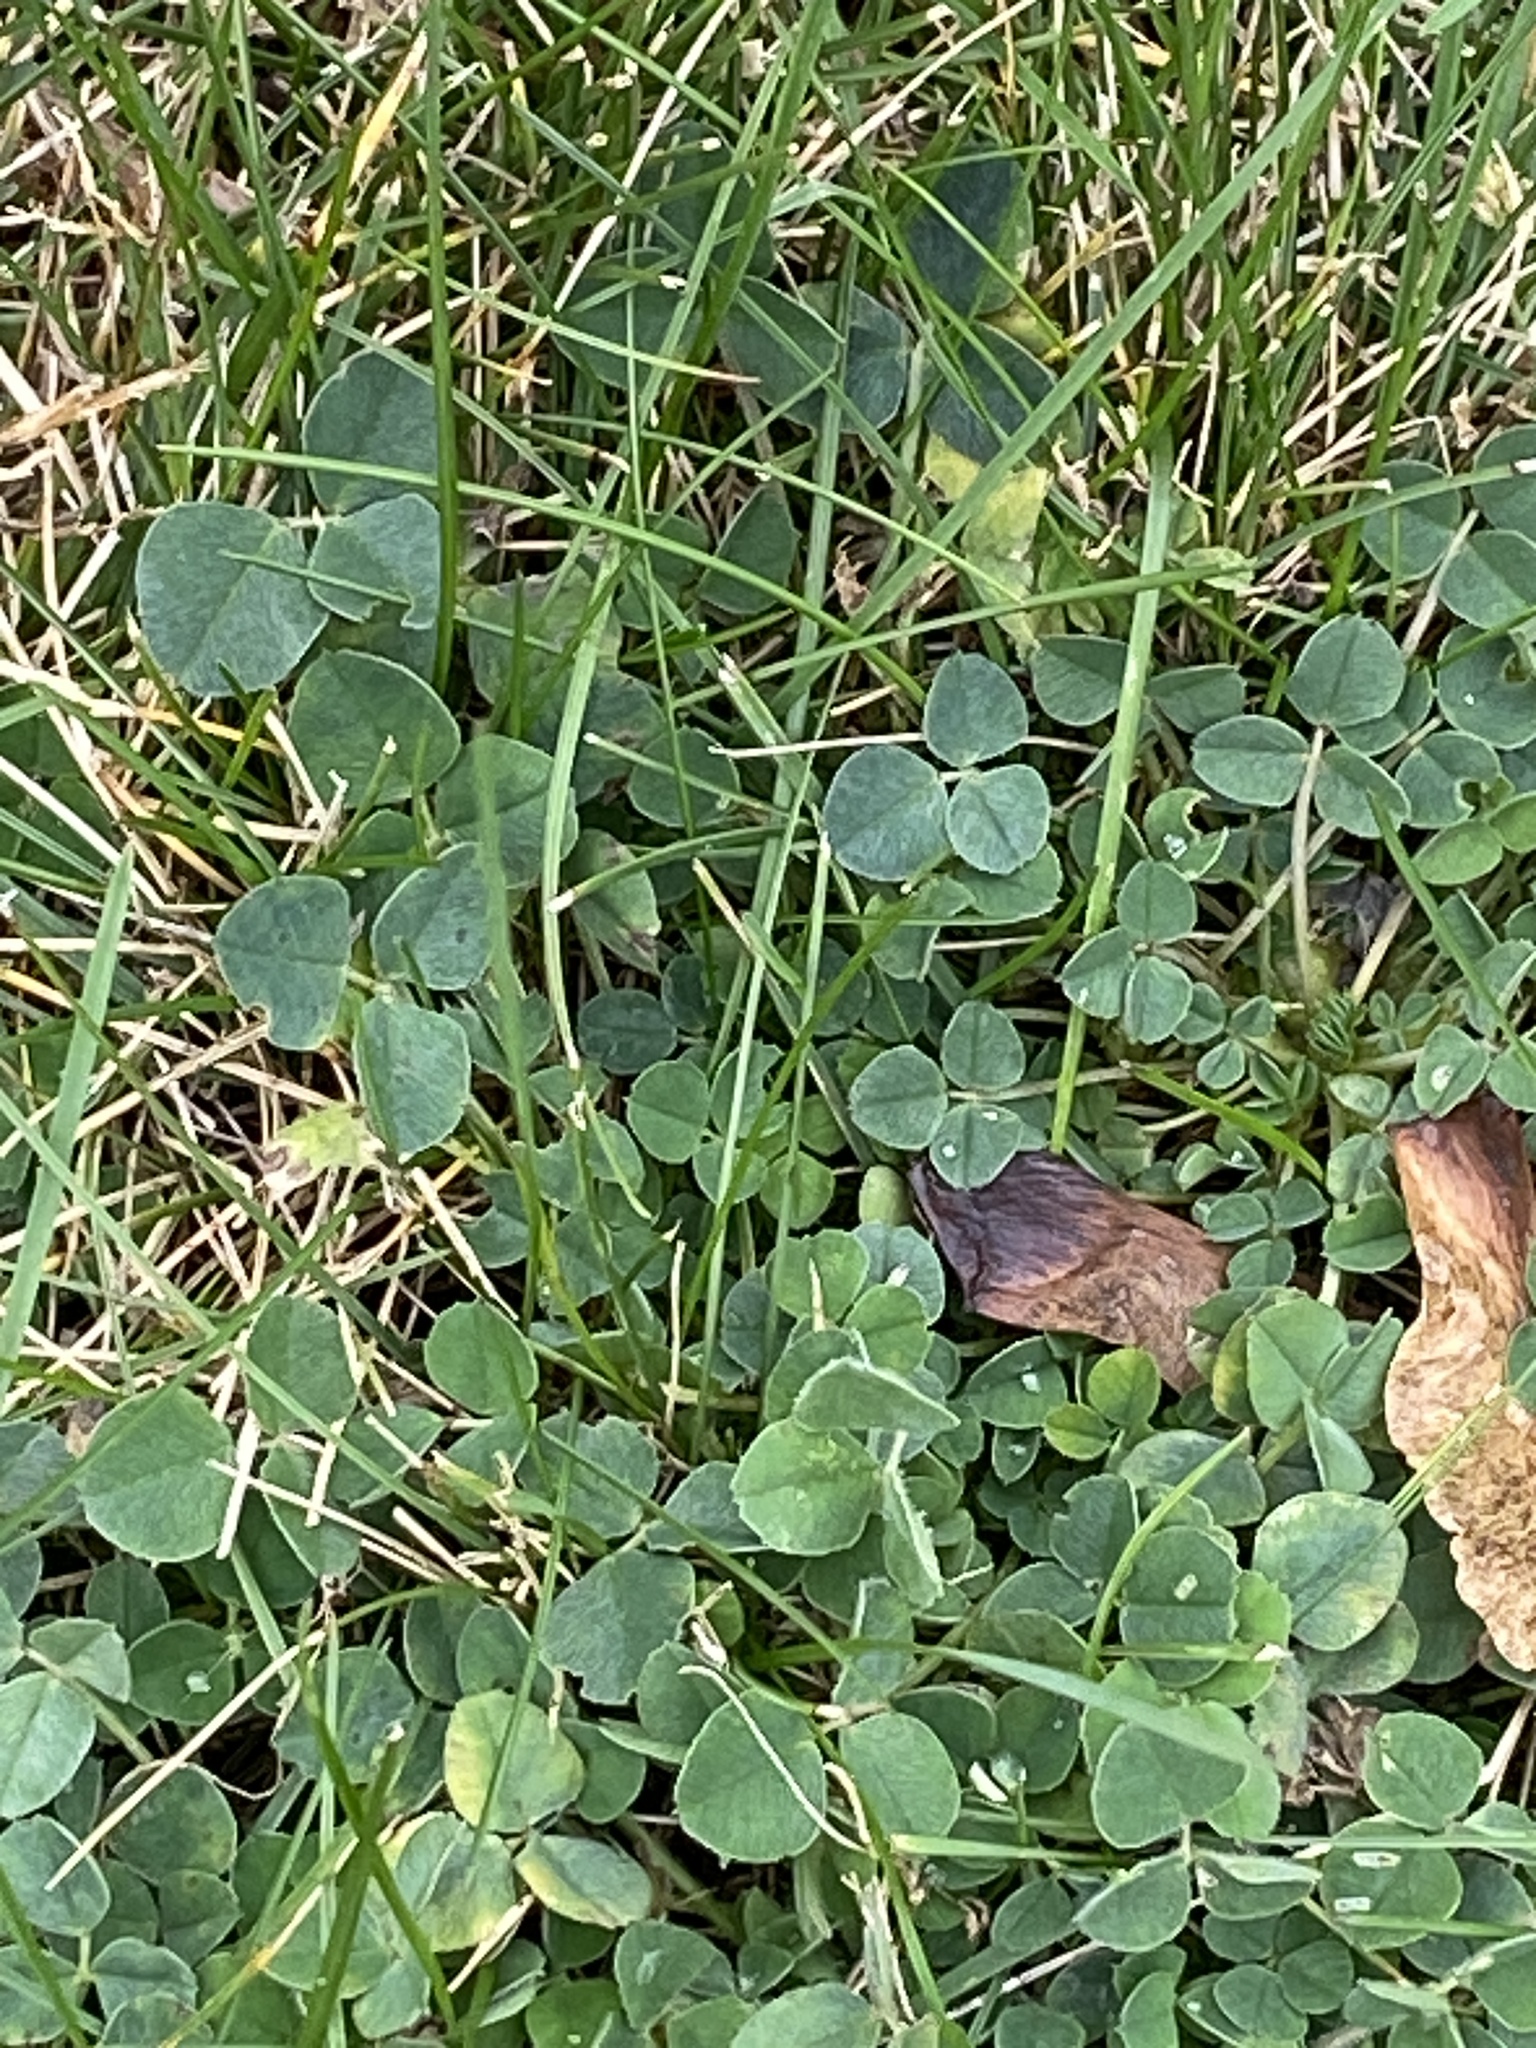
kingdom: Plantae
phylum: Tracheophyta
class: Magnoliopsida
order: Fabales
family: Fabaceae
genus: Medicago
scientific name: Medicago lupulina
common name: Black medick
